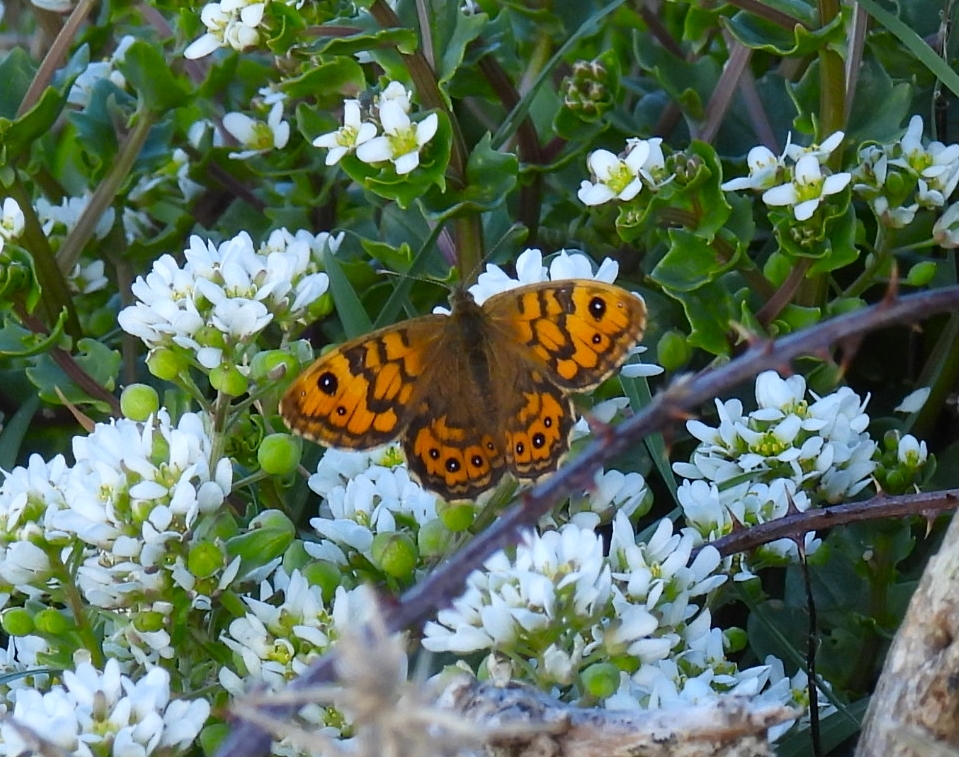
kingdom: Animalia
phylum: Arthropoda
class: Insecta
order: Lepidoptera
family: Nymphalidae
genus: Pararge
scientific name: Pararge Lasiommata megera
